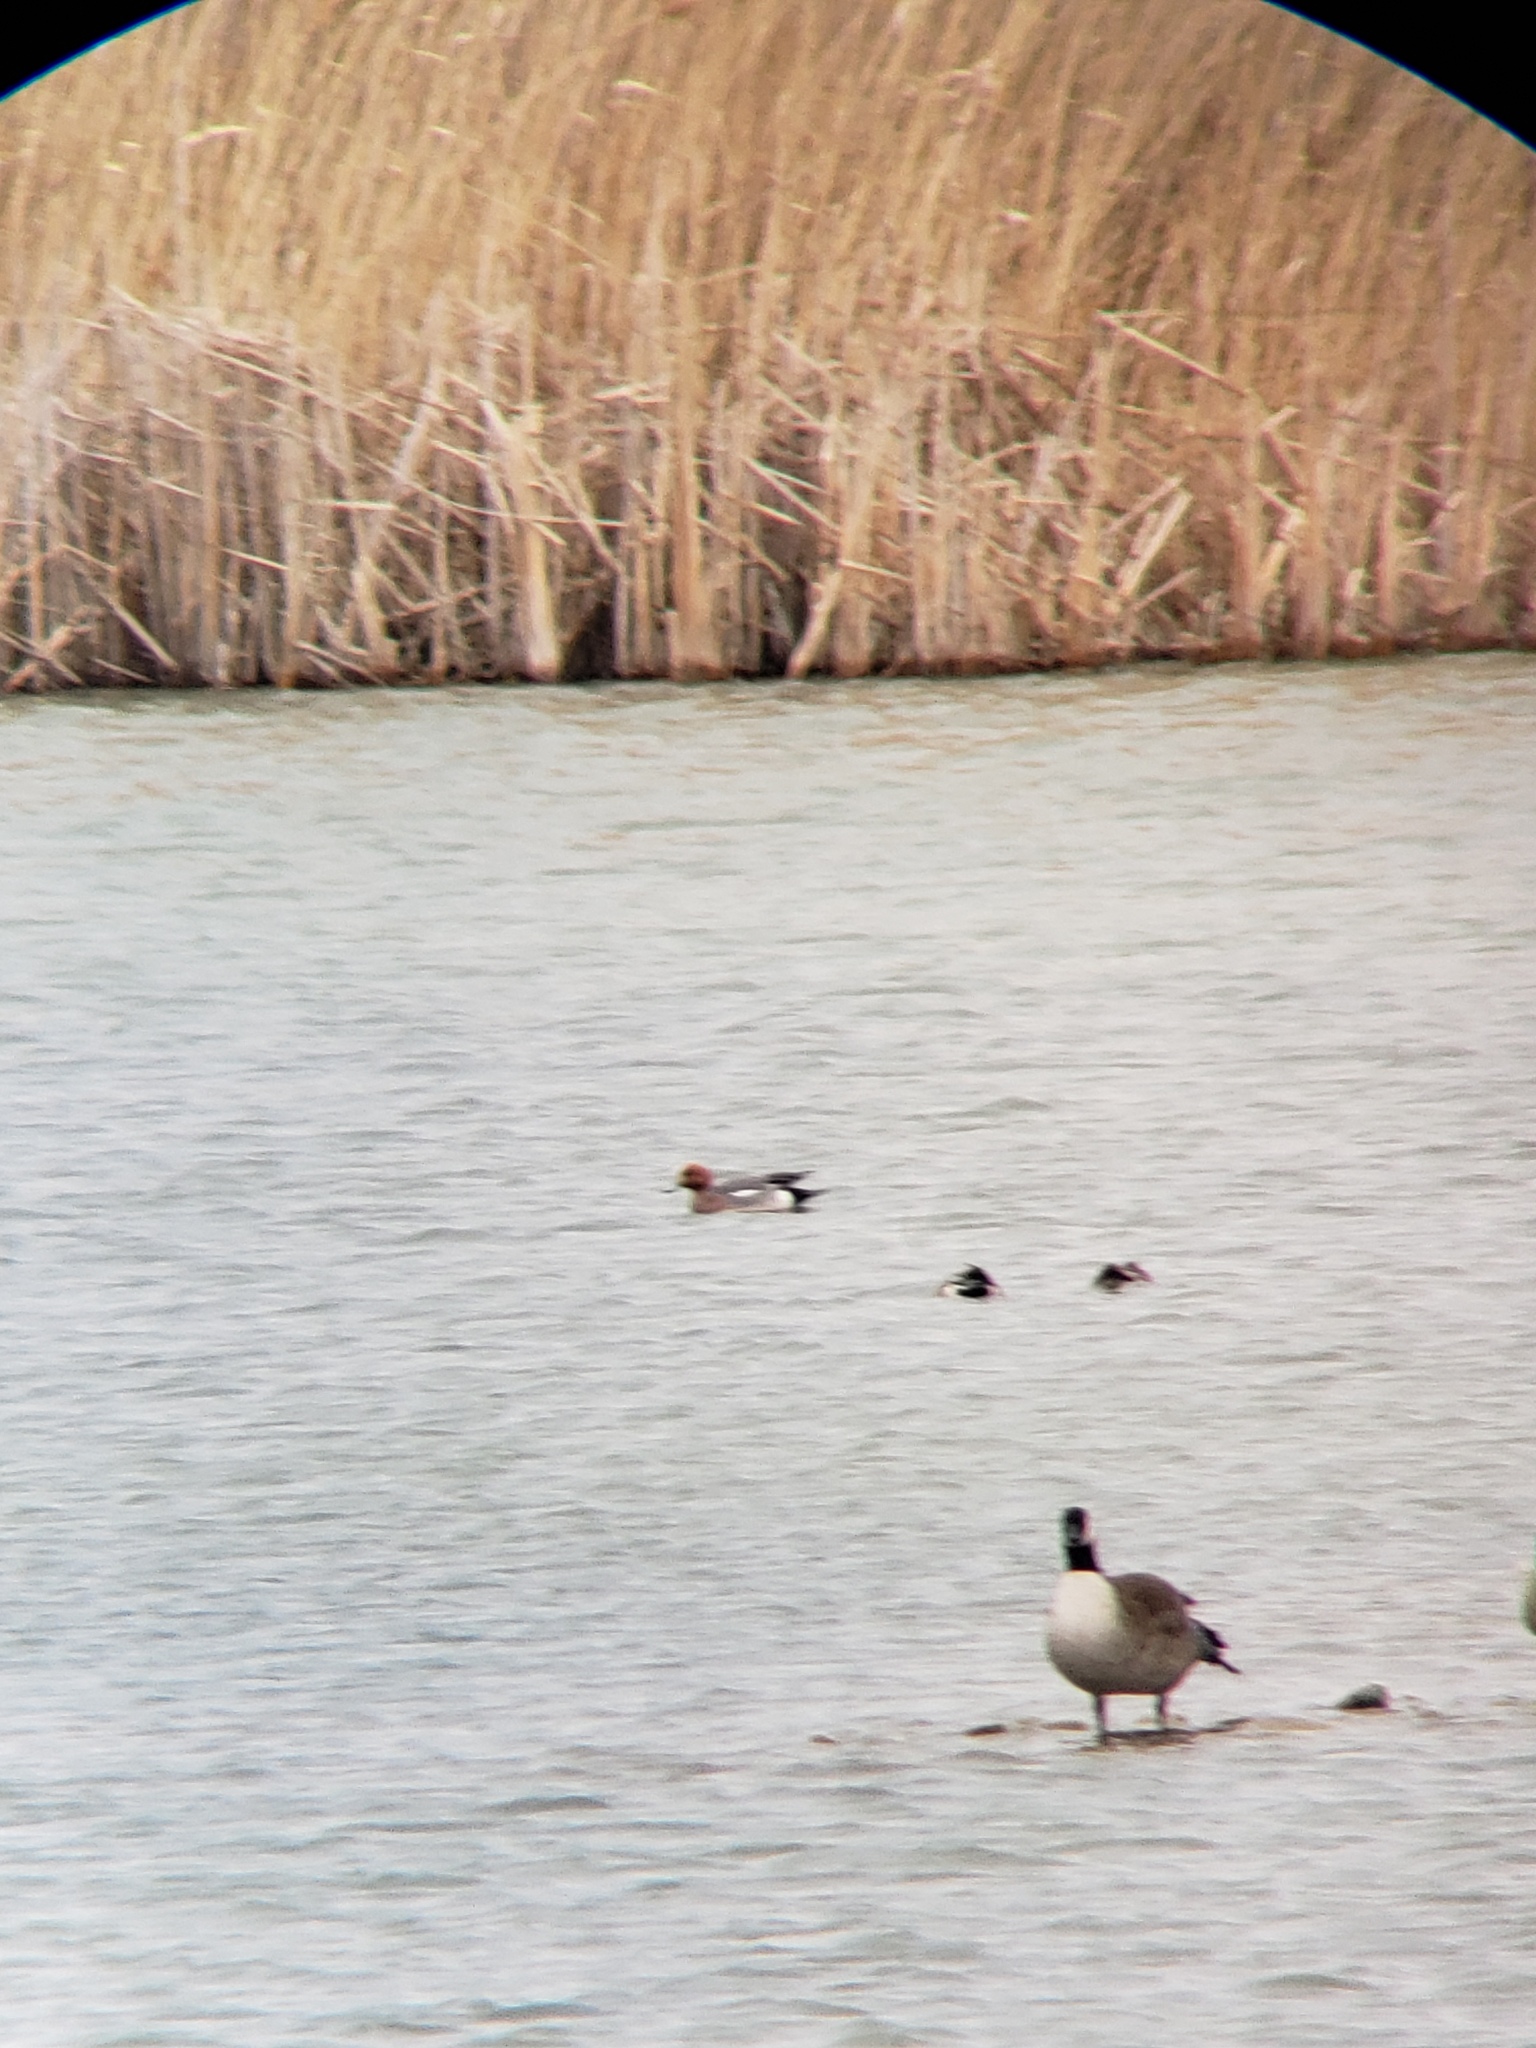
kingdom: Animalia
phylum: Chordata
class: Aves
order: Anseriformes
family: Anatidae
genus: Mareca
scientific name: Mareca penelope
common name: Eurasian wigeon
